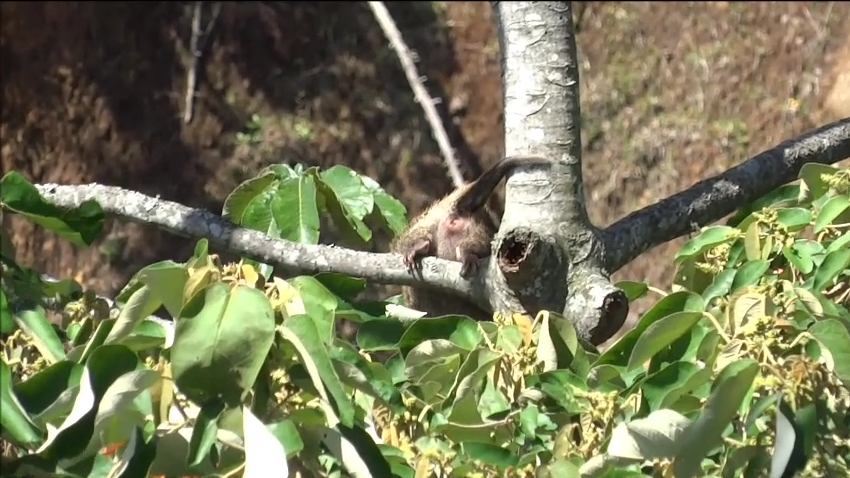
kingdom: Animalia
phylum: Chordata
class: Mammalia
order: Rodentia
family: Erethizontidae
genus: Echinoprocta
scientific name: Echinoprocta rufescens
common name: Stump-tailed porcupine
